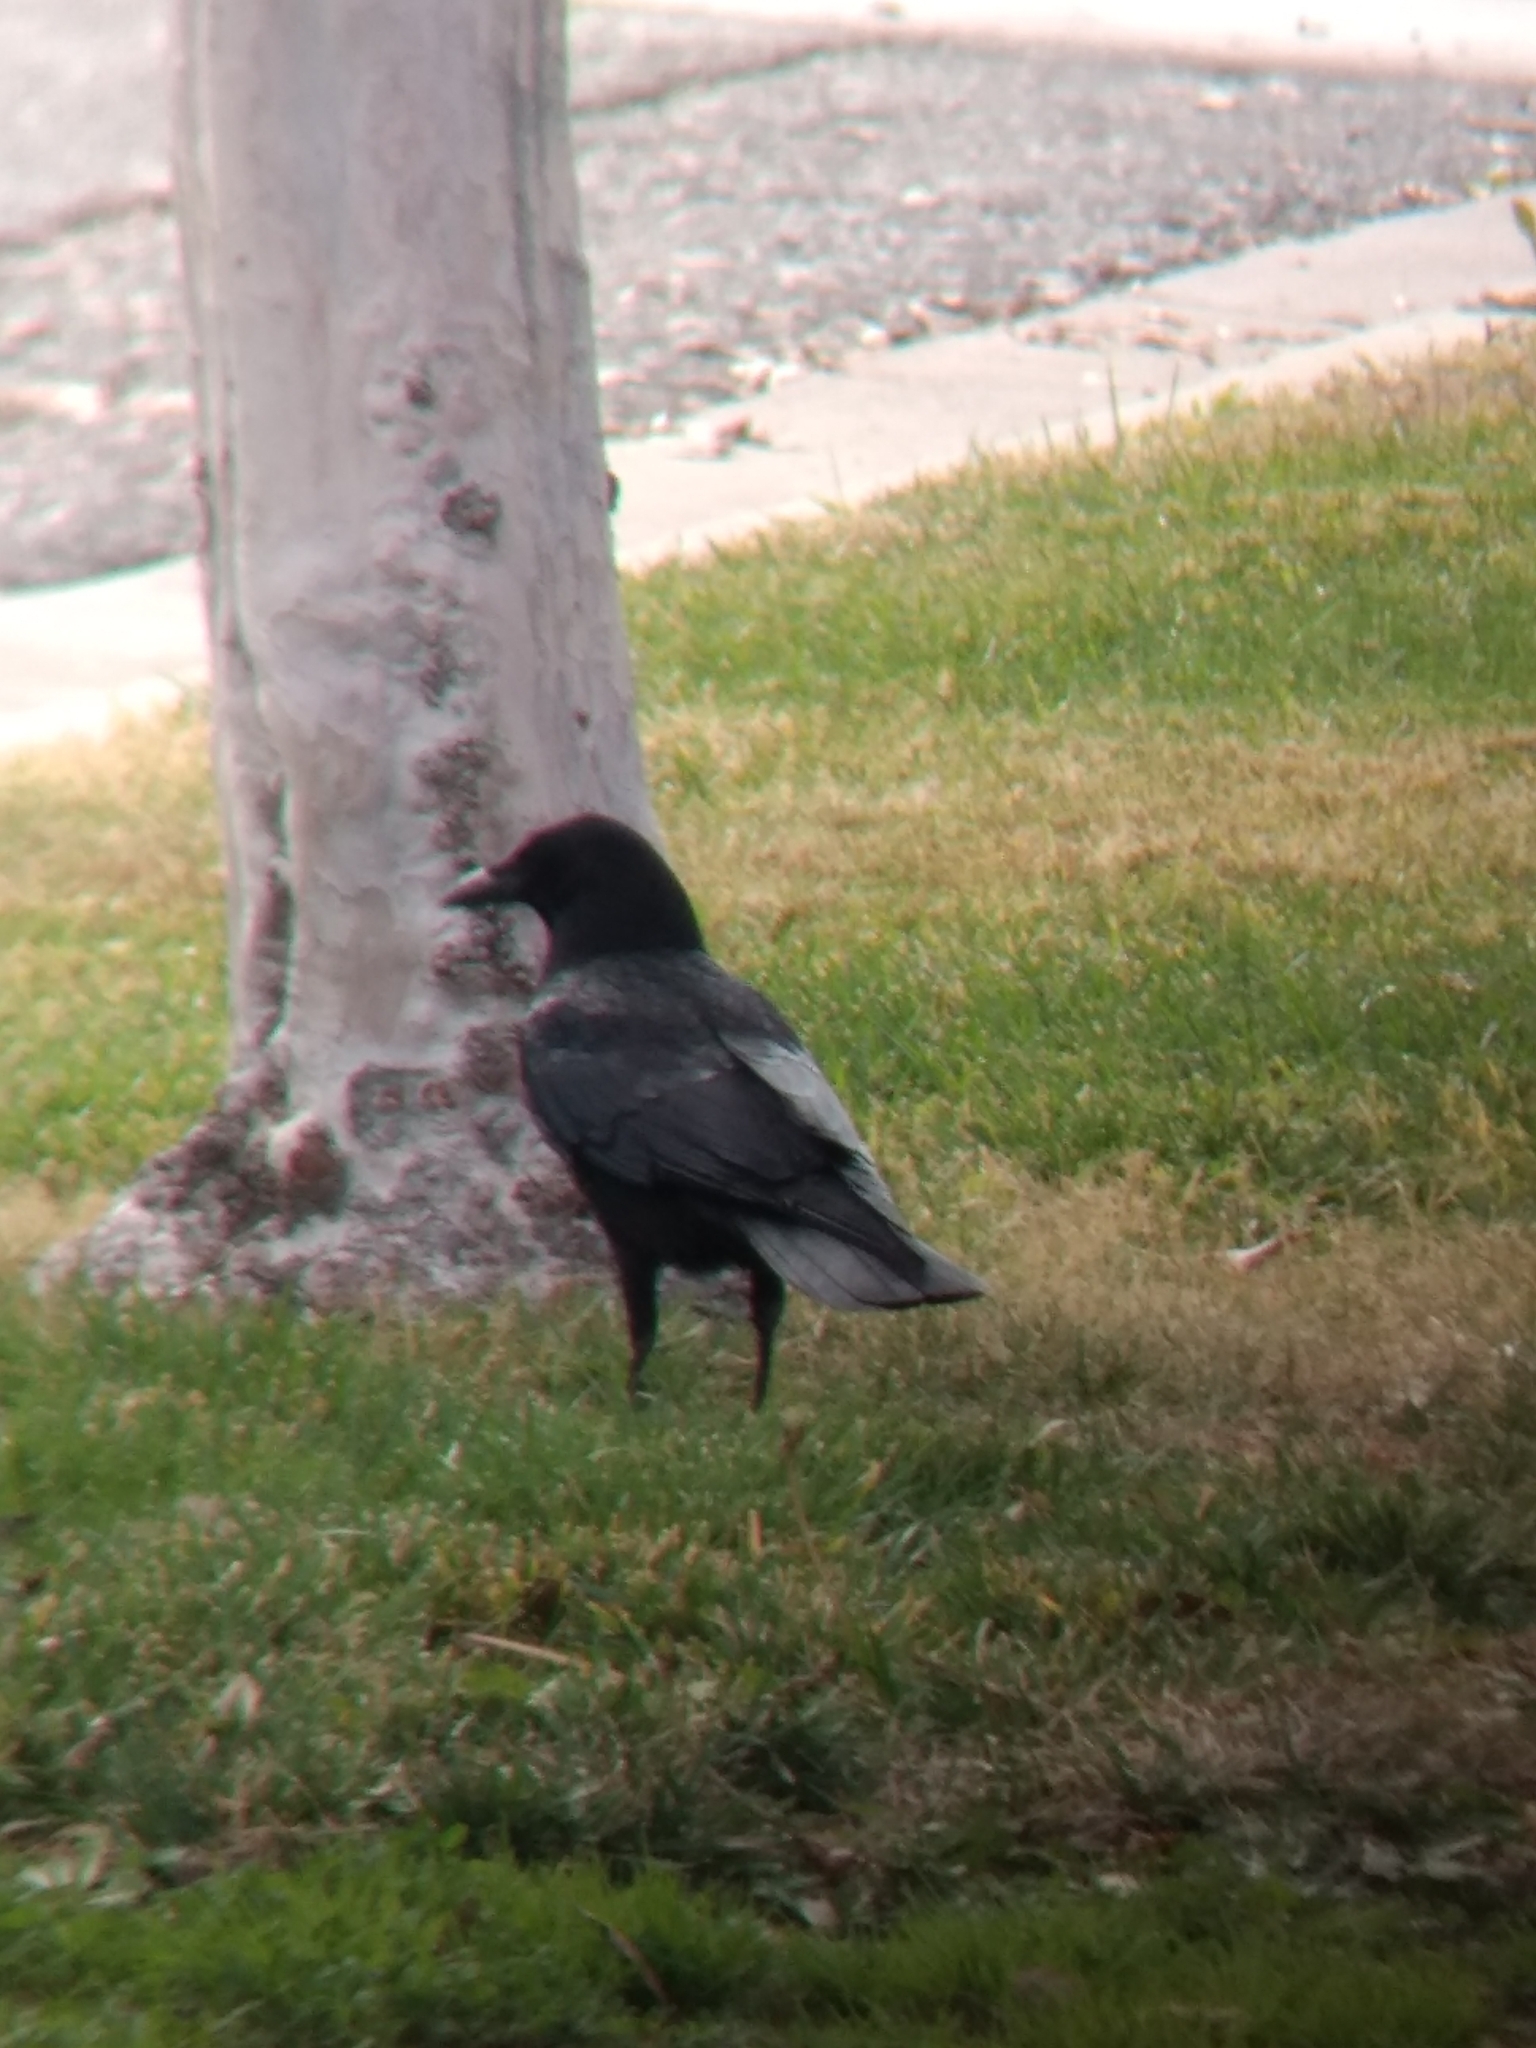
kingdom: Animalia
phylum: Chordata
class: Aves
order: Passeriformes
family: Corvidae
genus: Corvus
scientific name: Corvus brachyrhynchos
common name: American crow
